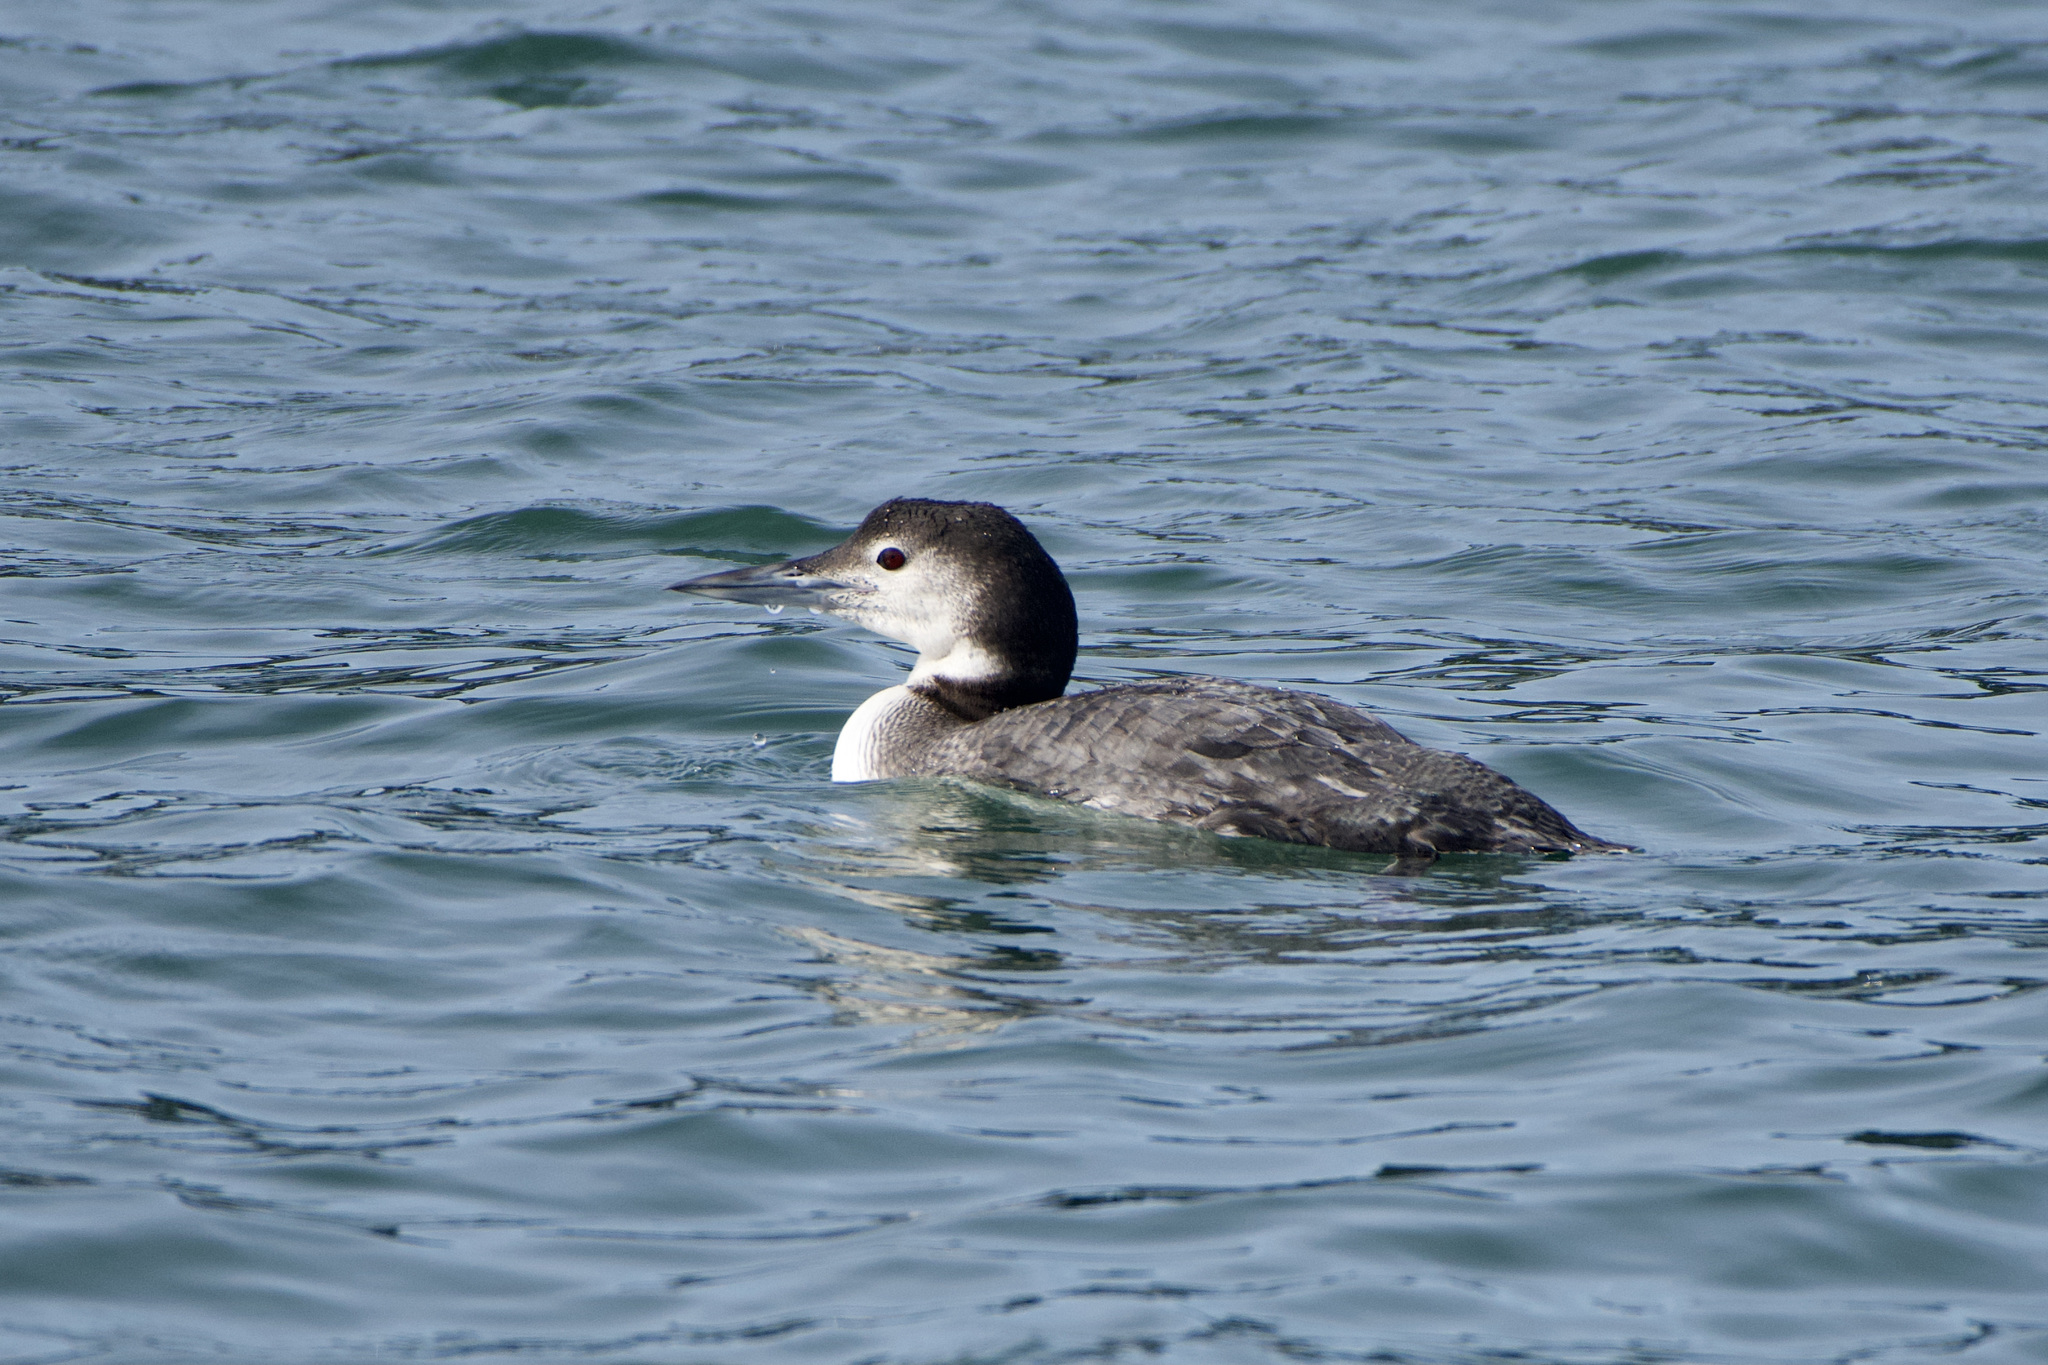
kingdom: Animalia
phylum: Chordata
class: Aves
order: Gaviiformes
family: Gaviidae
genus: Gavia
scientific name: Gavia immer
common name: Common loon
